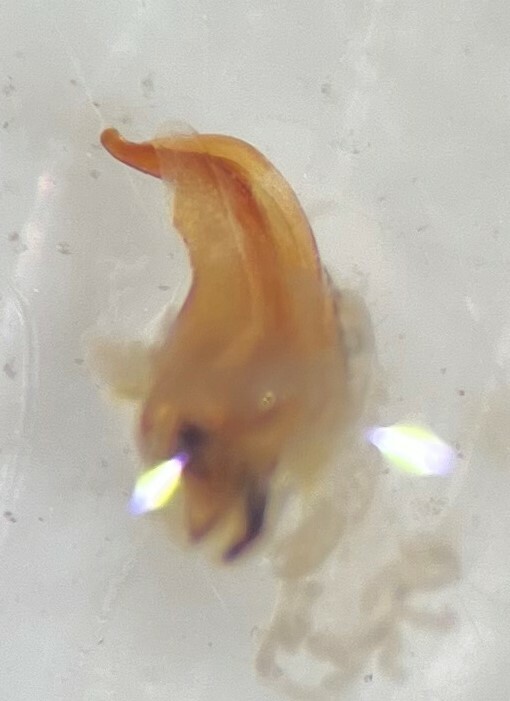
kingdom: Animalia
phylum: Arthropoda
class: Insecta
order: Coleoptera
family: Haliplidae
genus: Peltodytes
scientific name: Peltodytes sexmaculatus
